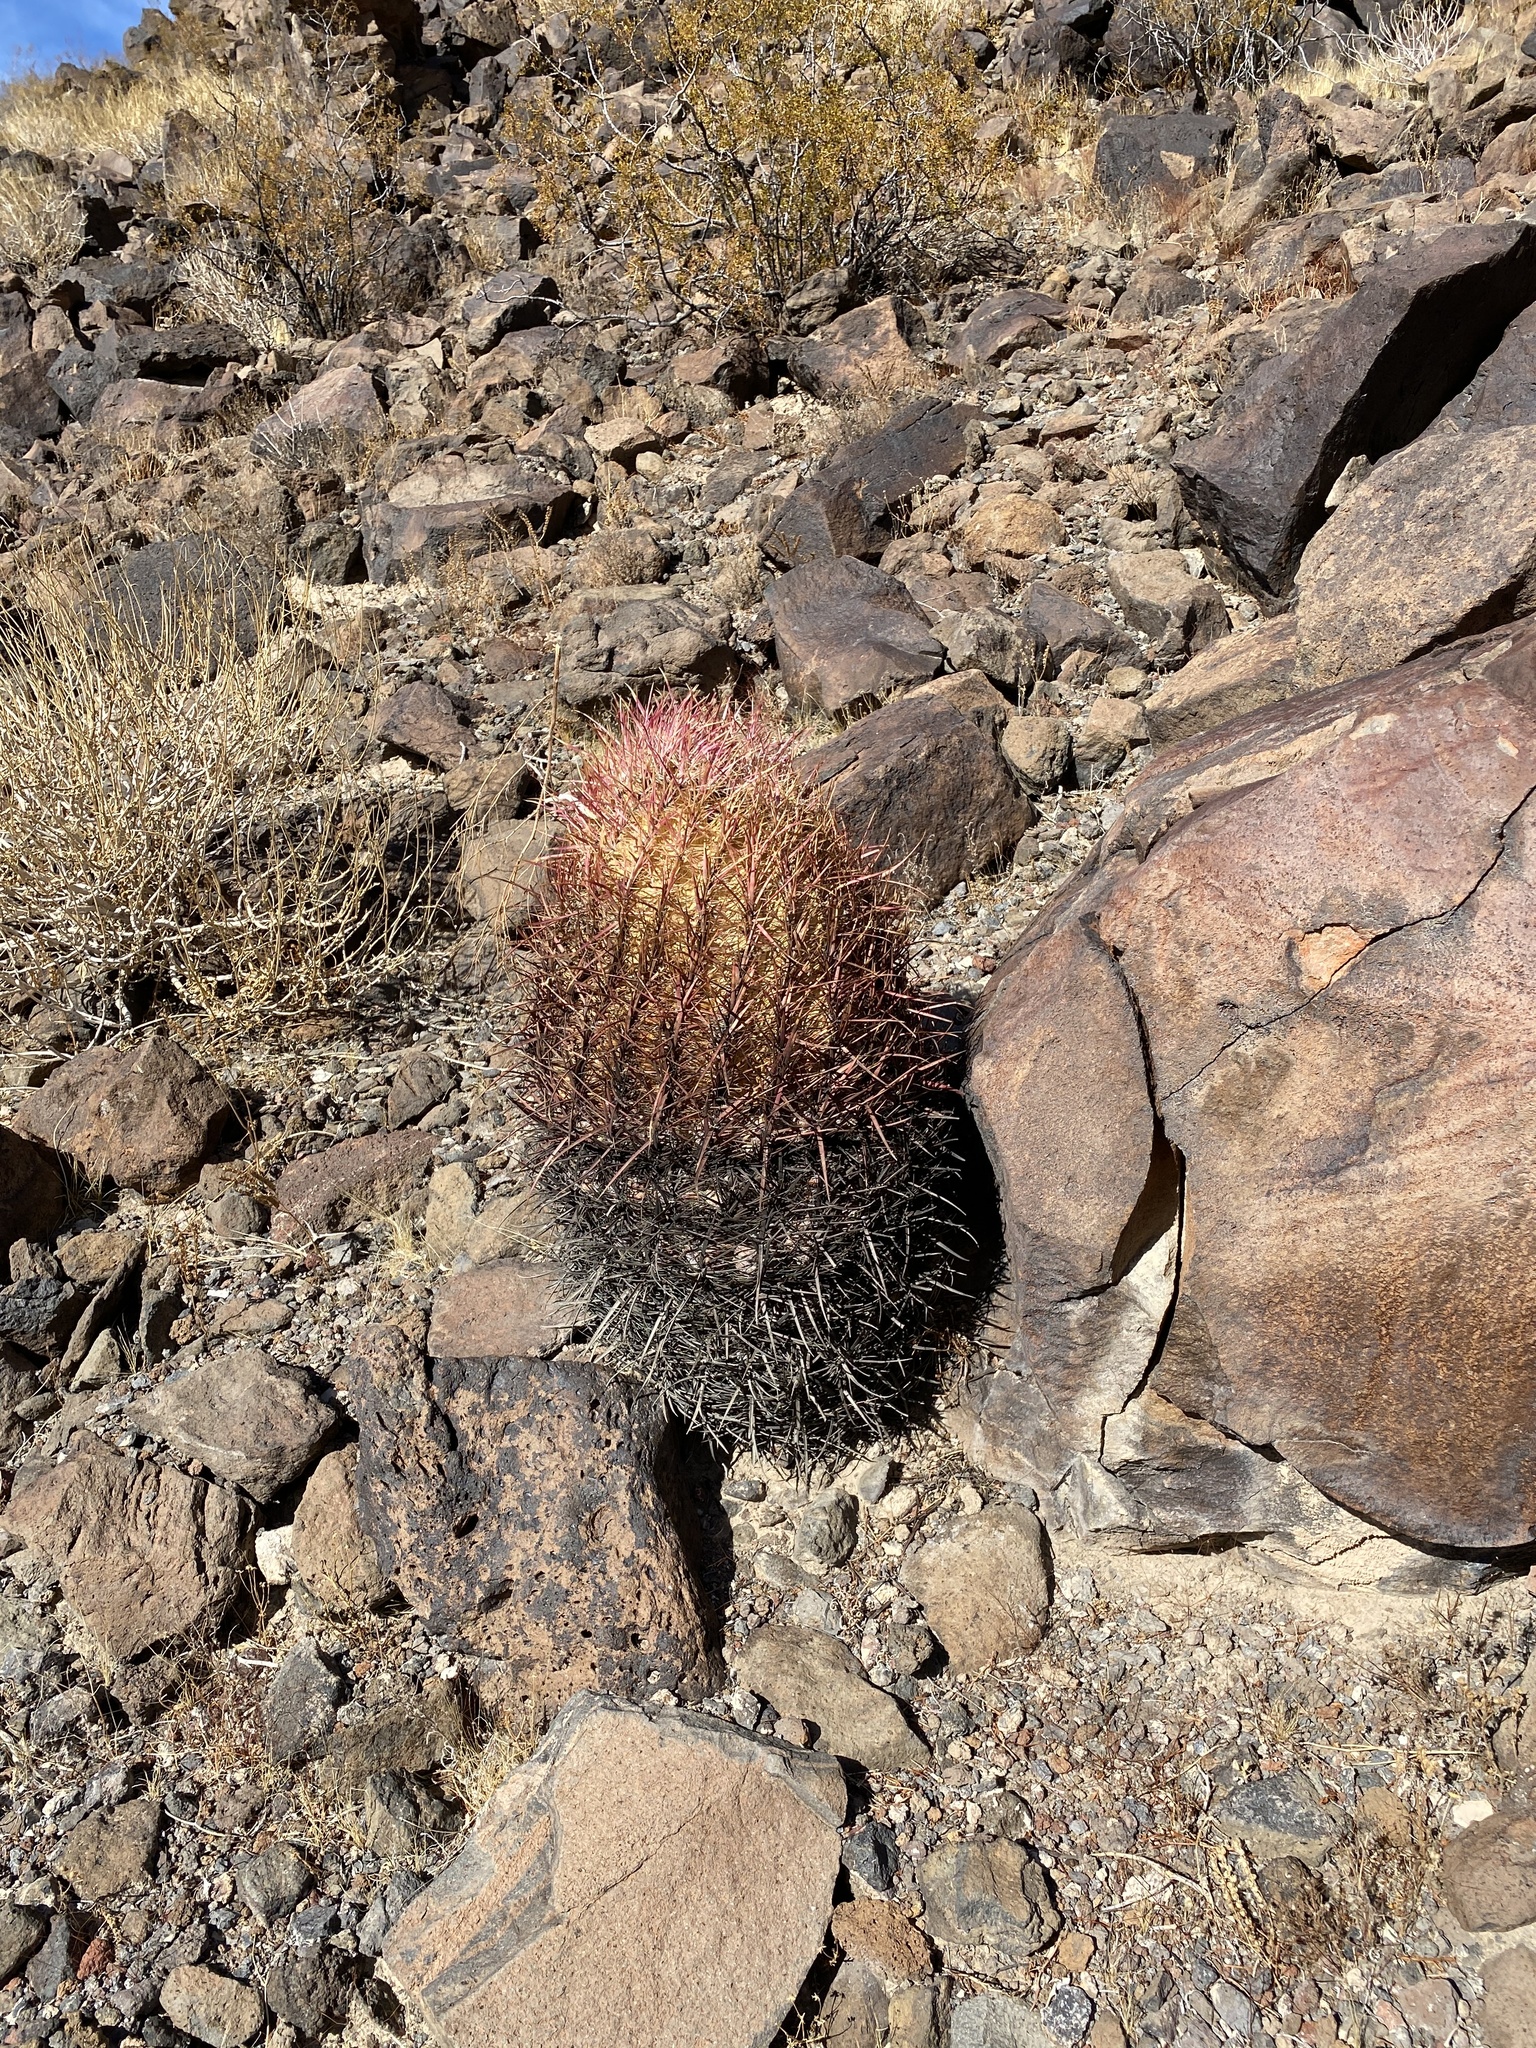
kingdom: Plantae
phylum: Tracheophyta
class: Magnoliopsida
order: Caryophyllales
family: Cactaceae
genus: Ferocactus
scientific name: Ferocactus cylindraceus
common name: California barrel cactus
